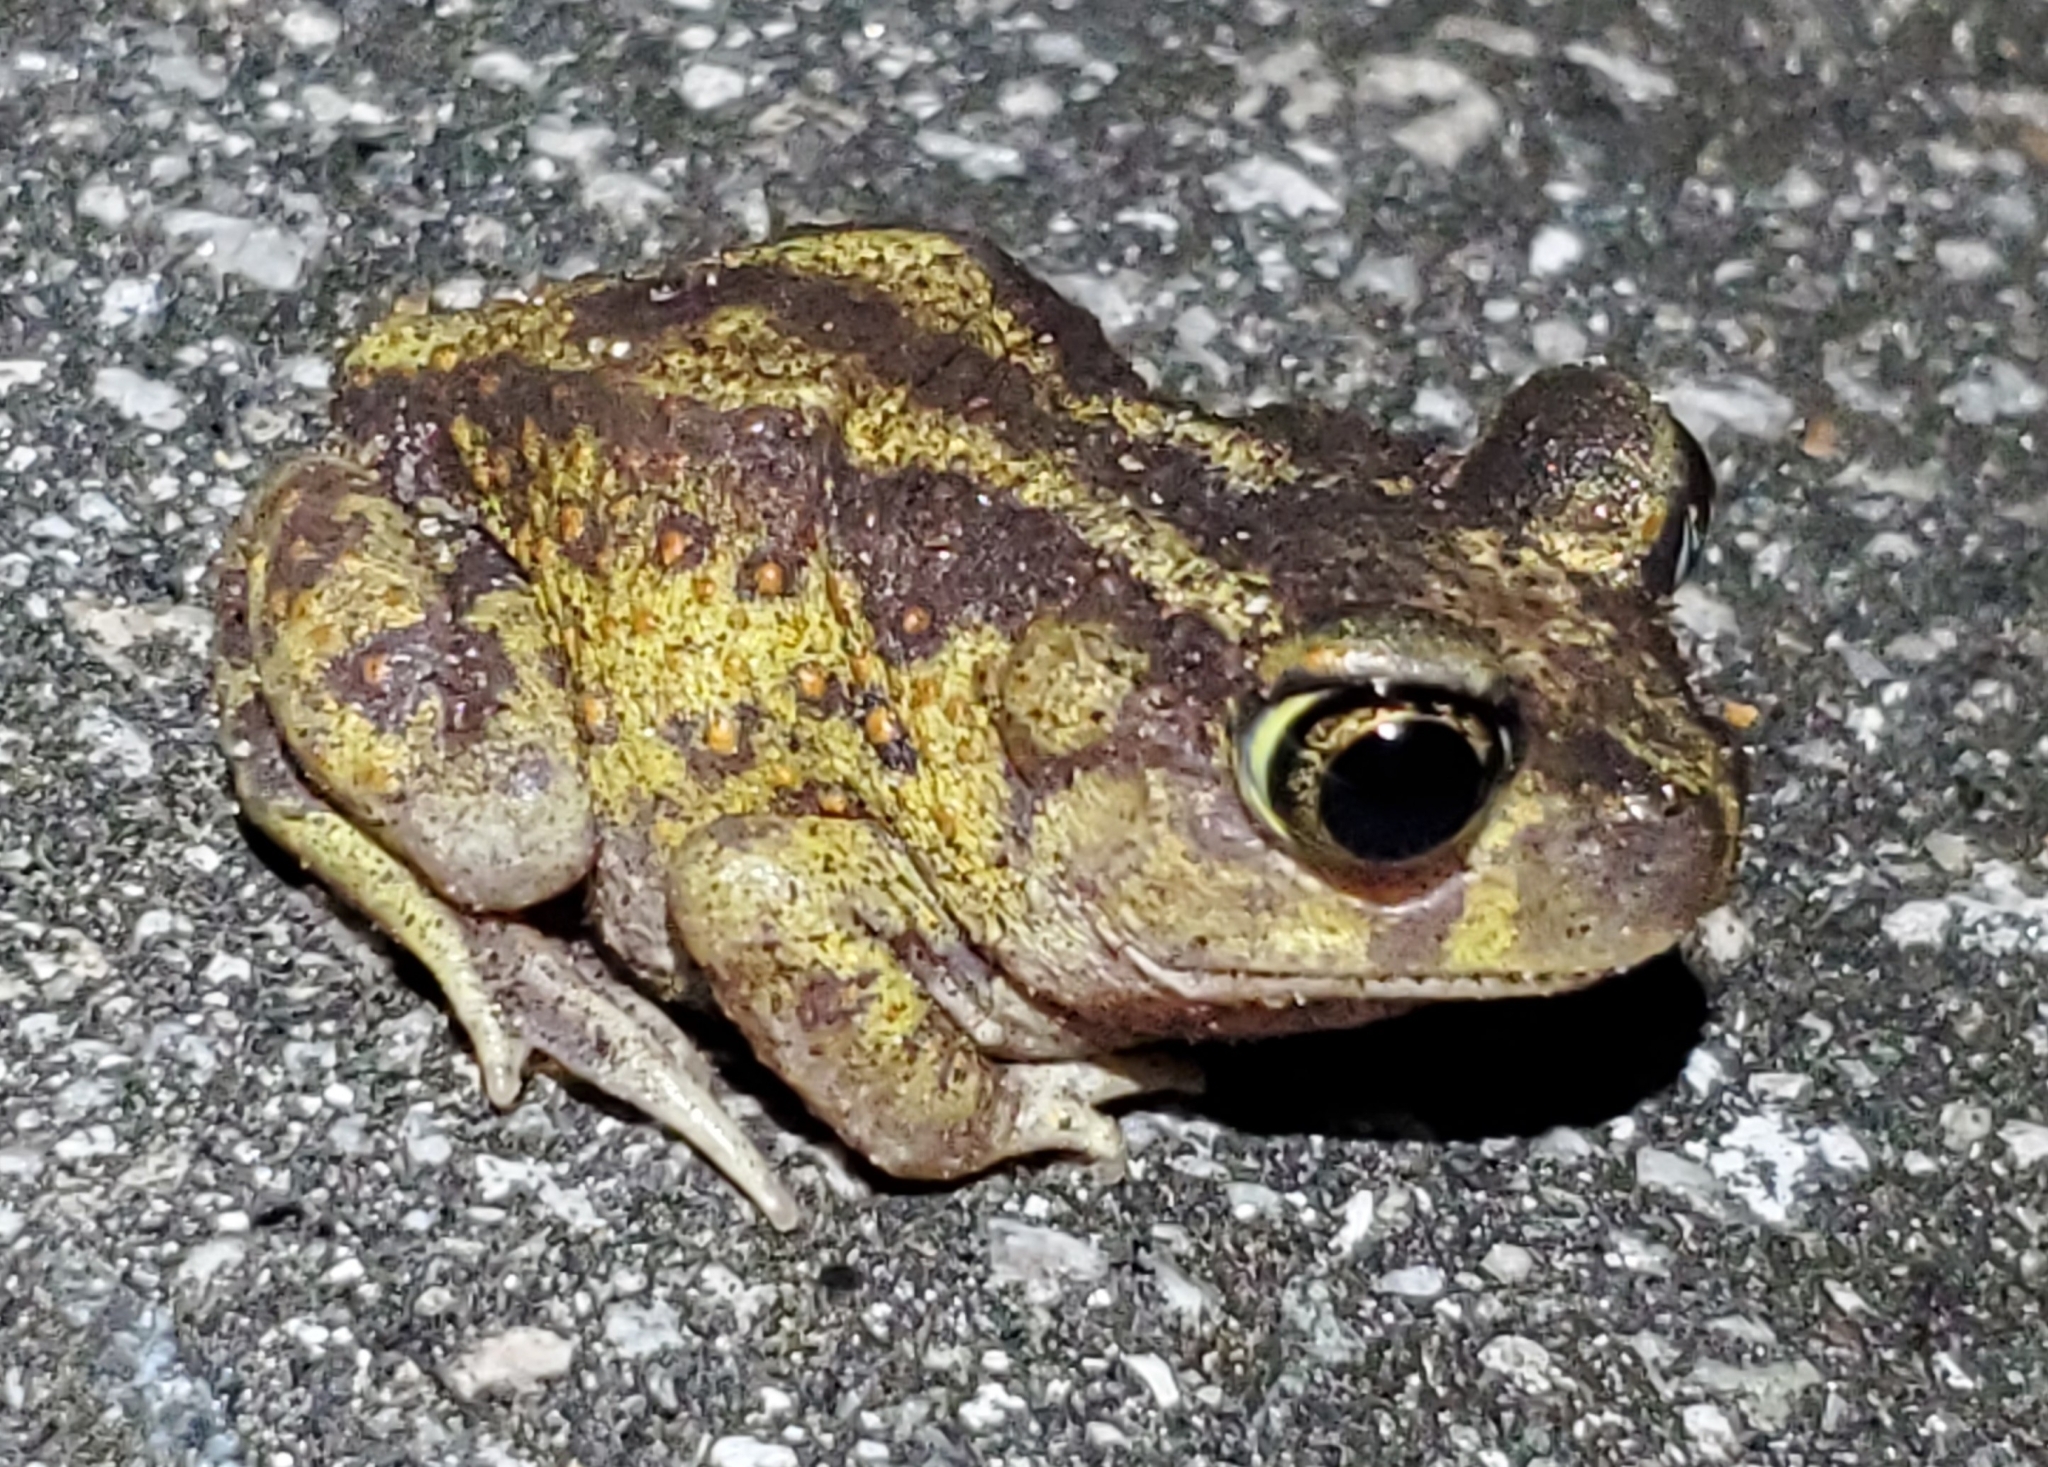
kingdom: Animalia
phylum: Chordata
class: Amphibia
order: Anura
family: Scaphiopodidae
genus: Scaphiopus
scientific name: Scaphiopus holbrookii
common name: Eastern spadefoot toad
